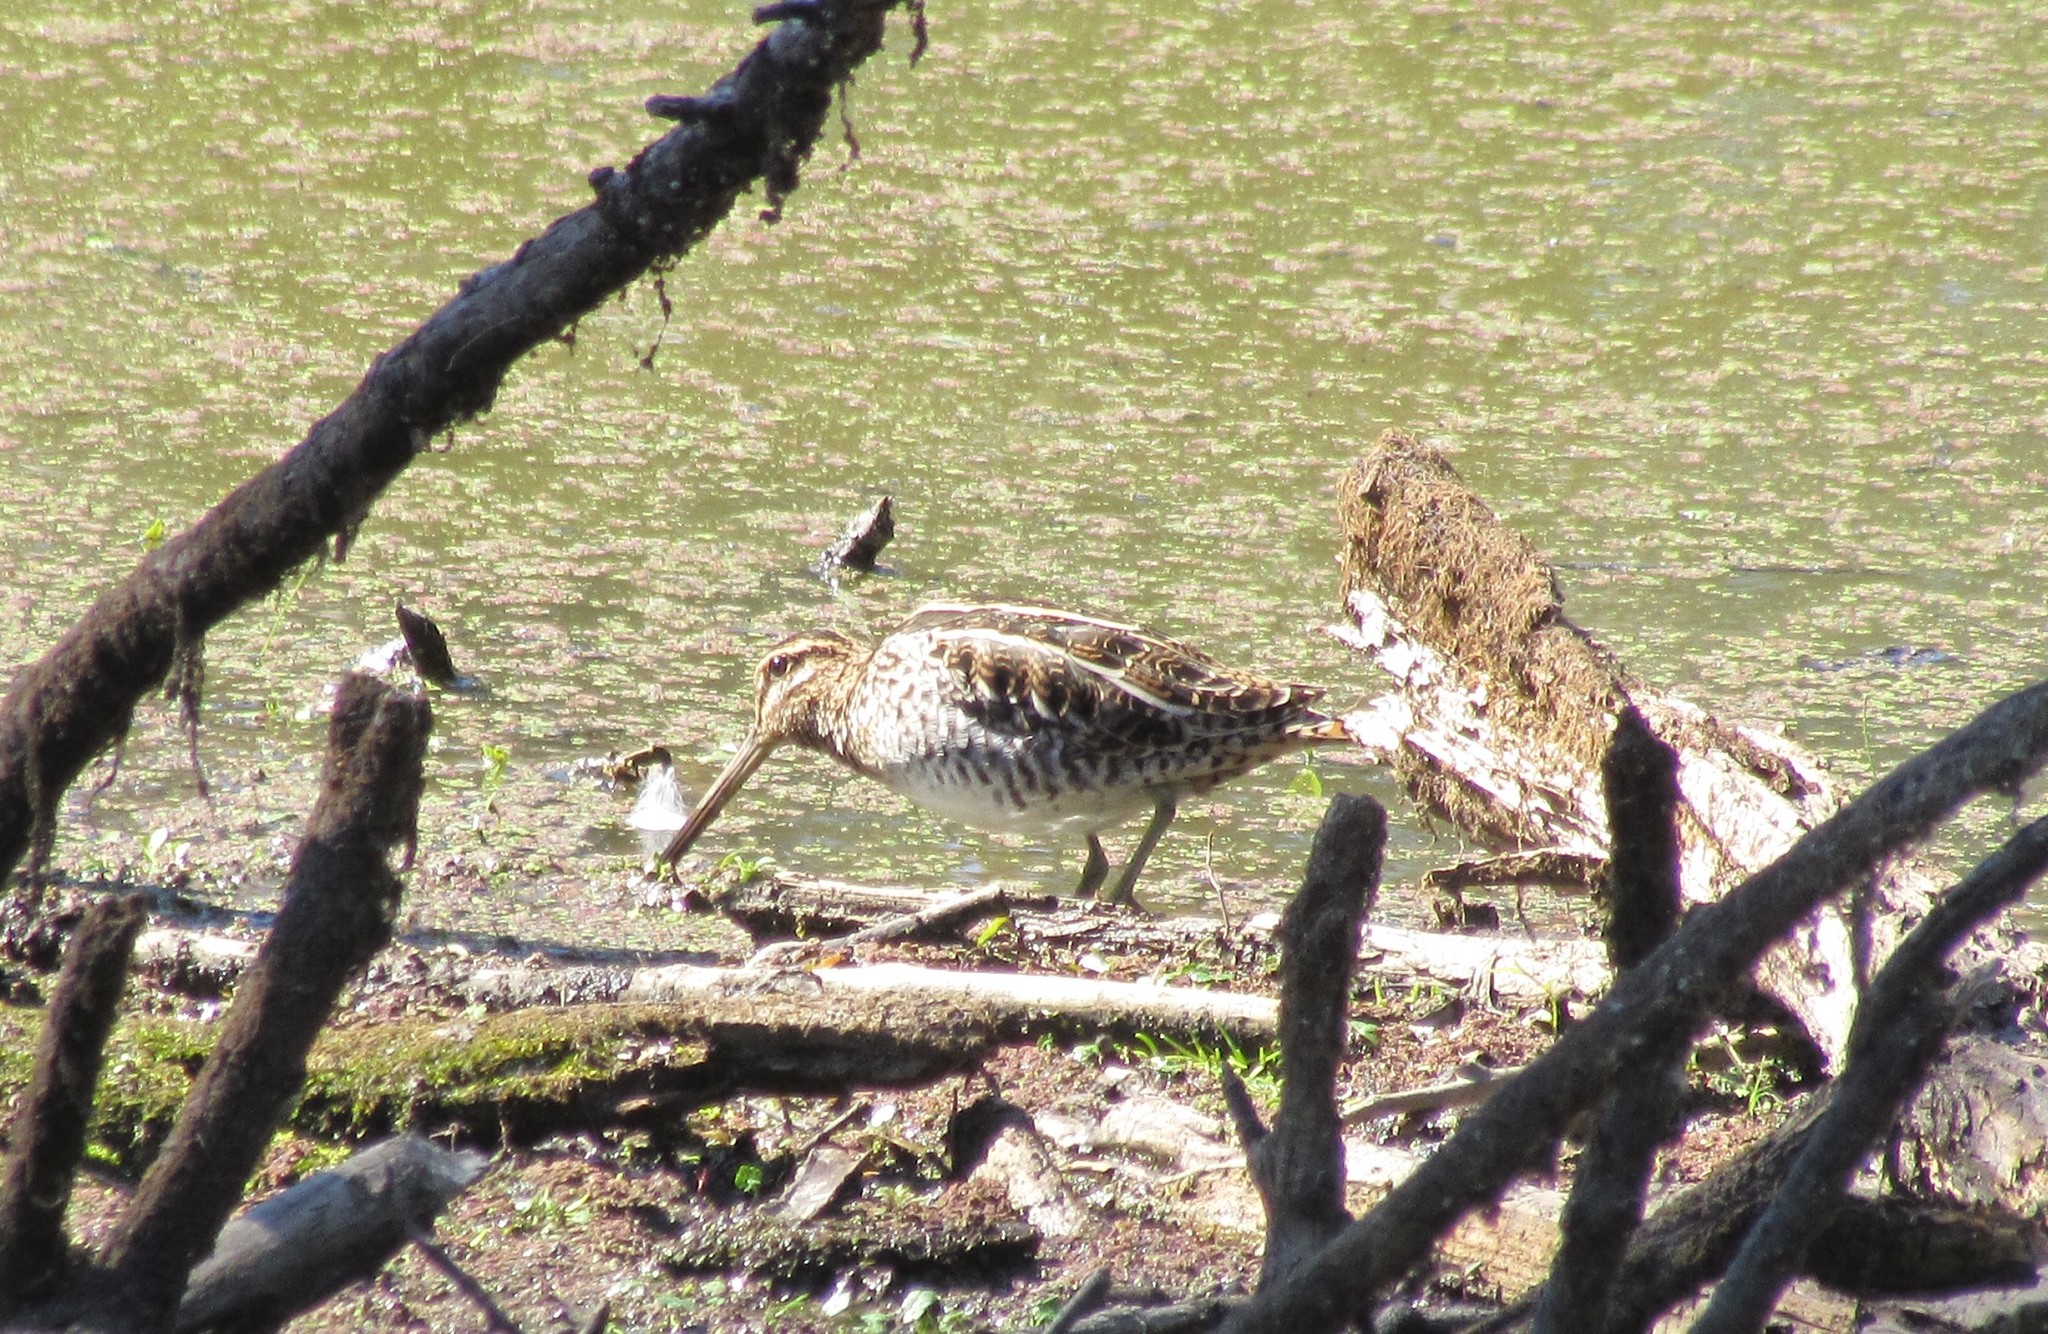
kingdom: Animalia
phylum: Chordata
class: Aves
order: Charadriiformes
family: Scolopacidae
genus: Gallinago
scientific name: Gallinago delicata
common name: Wilson's snipe
